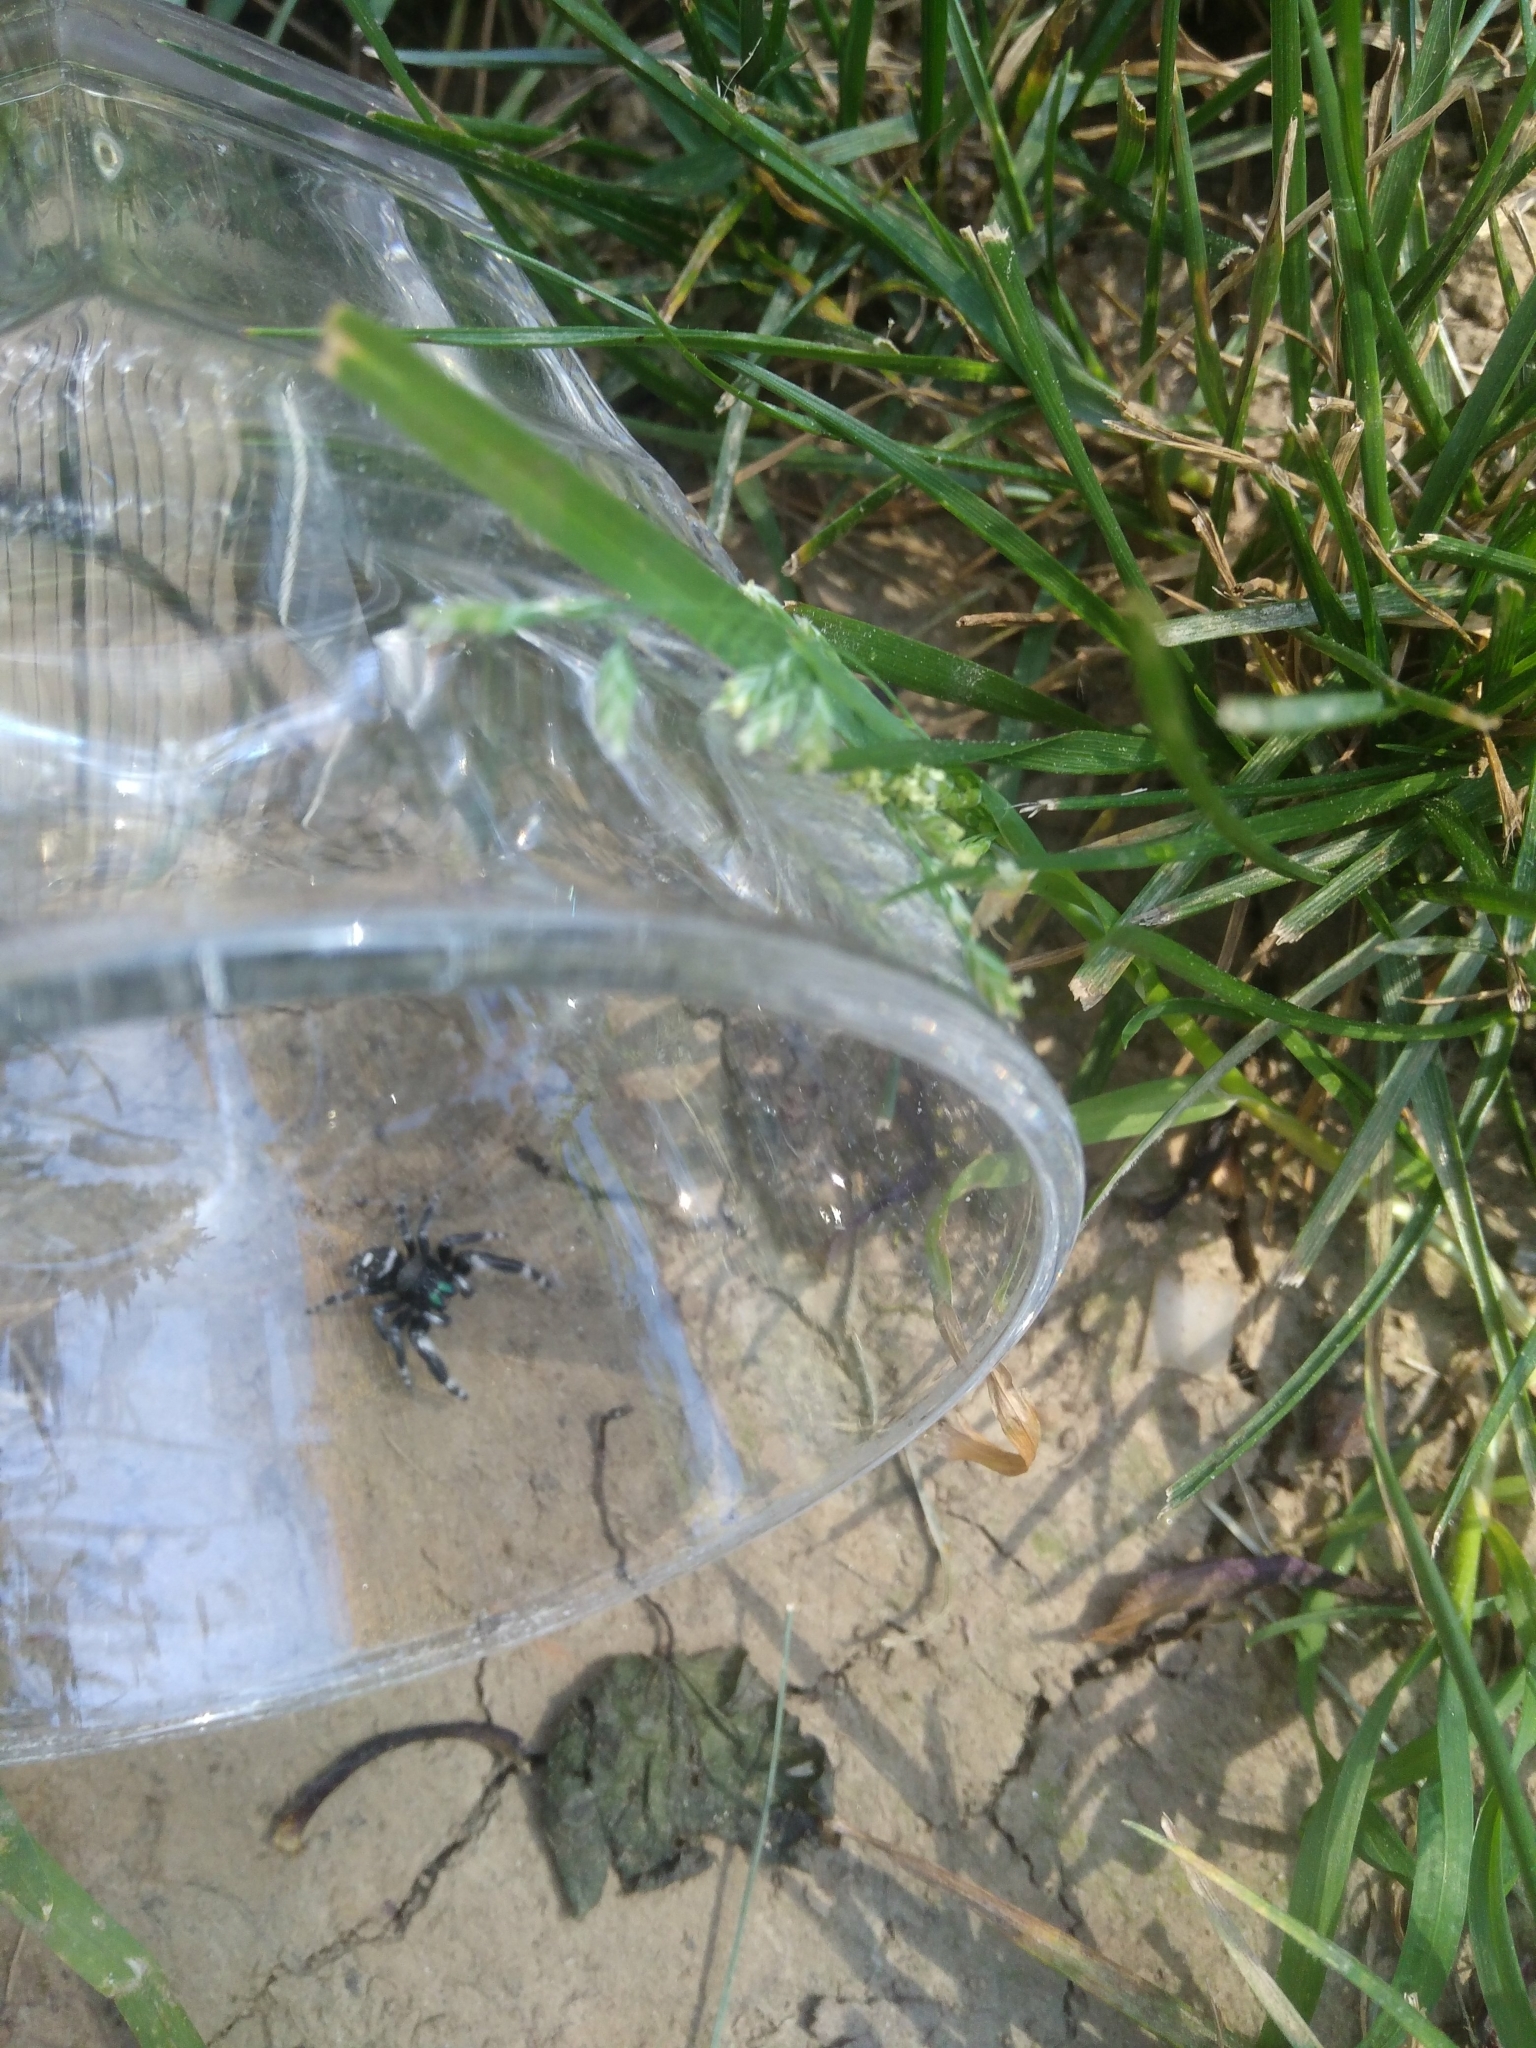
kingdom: Animalia
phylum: Arthropoda
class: Arachnida
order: Araneae
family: Salticidae
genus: Phidippus
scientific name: Phidippus audax
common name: Bold jumper
